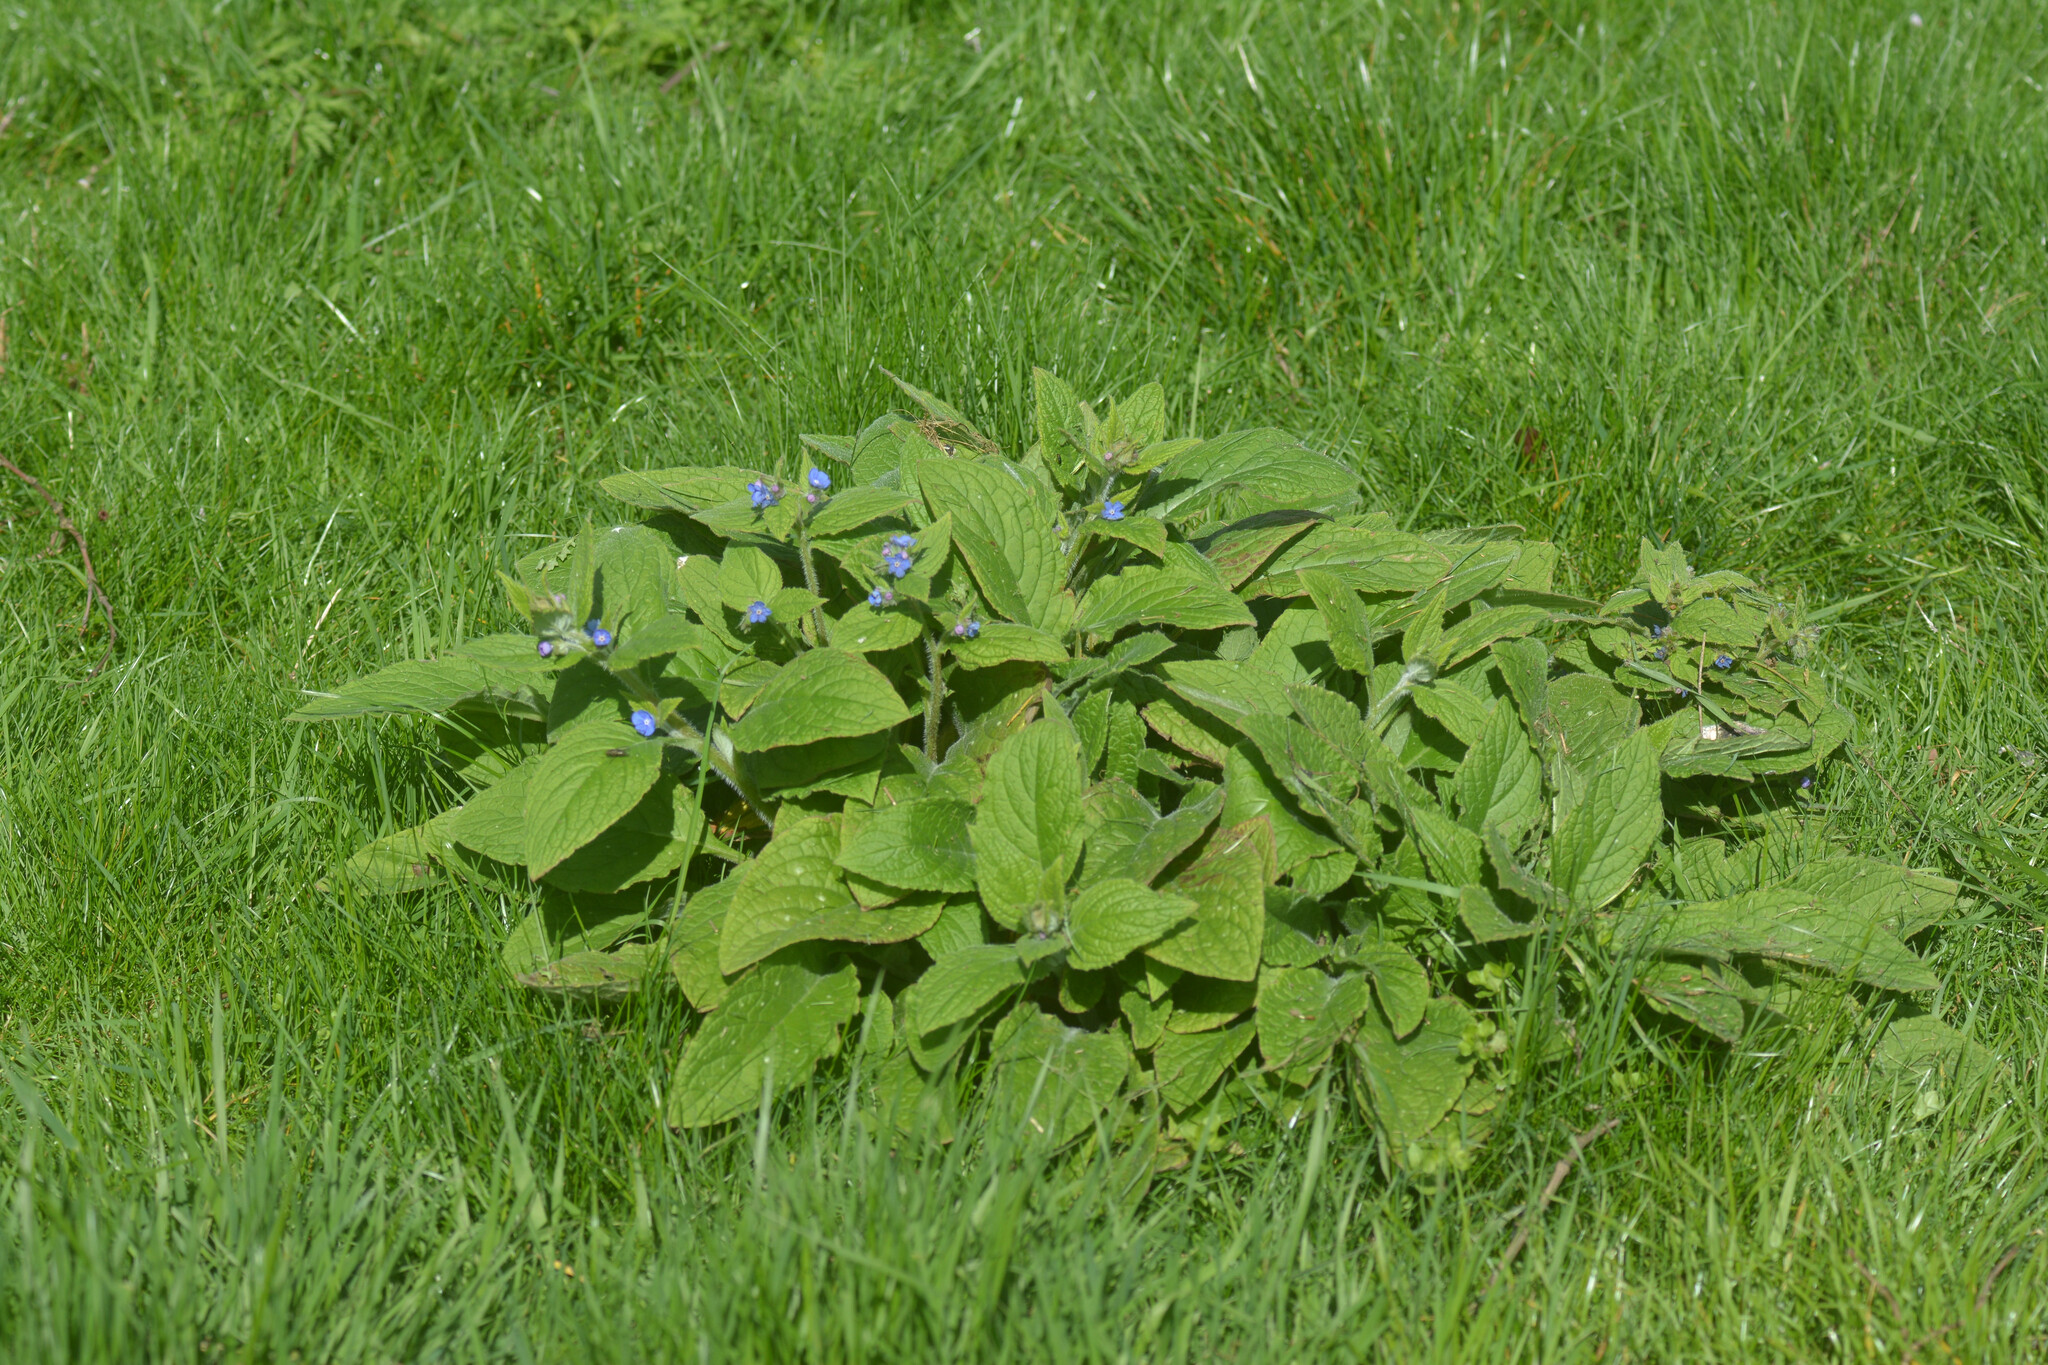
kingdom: Plantae
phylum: Tracheophyta
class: Magnoliopsida
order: Boraginales
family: Boraginaceae
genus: Pentaglottis
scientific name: Pentaglottis sempervirens
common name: Green alkanet
